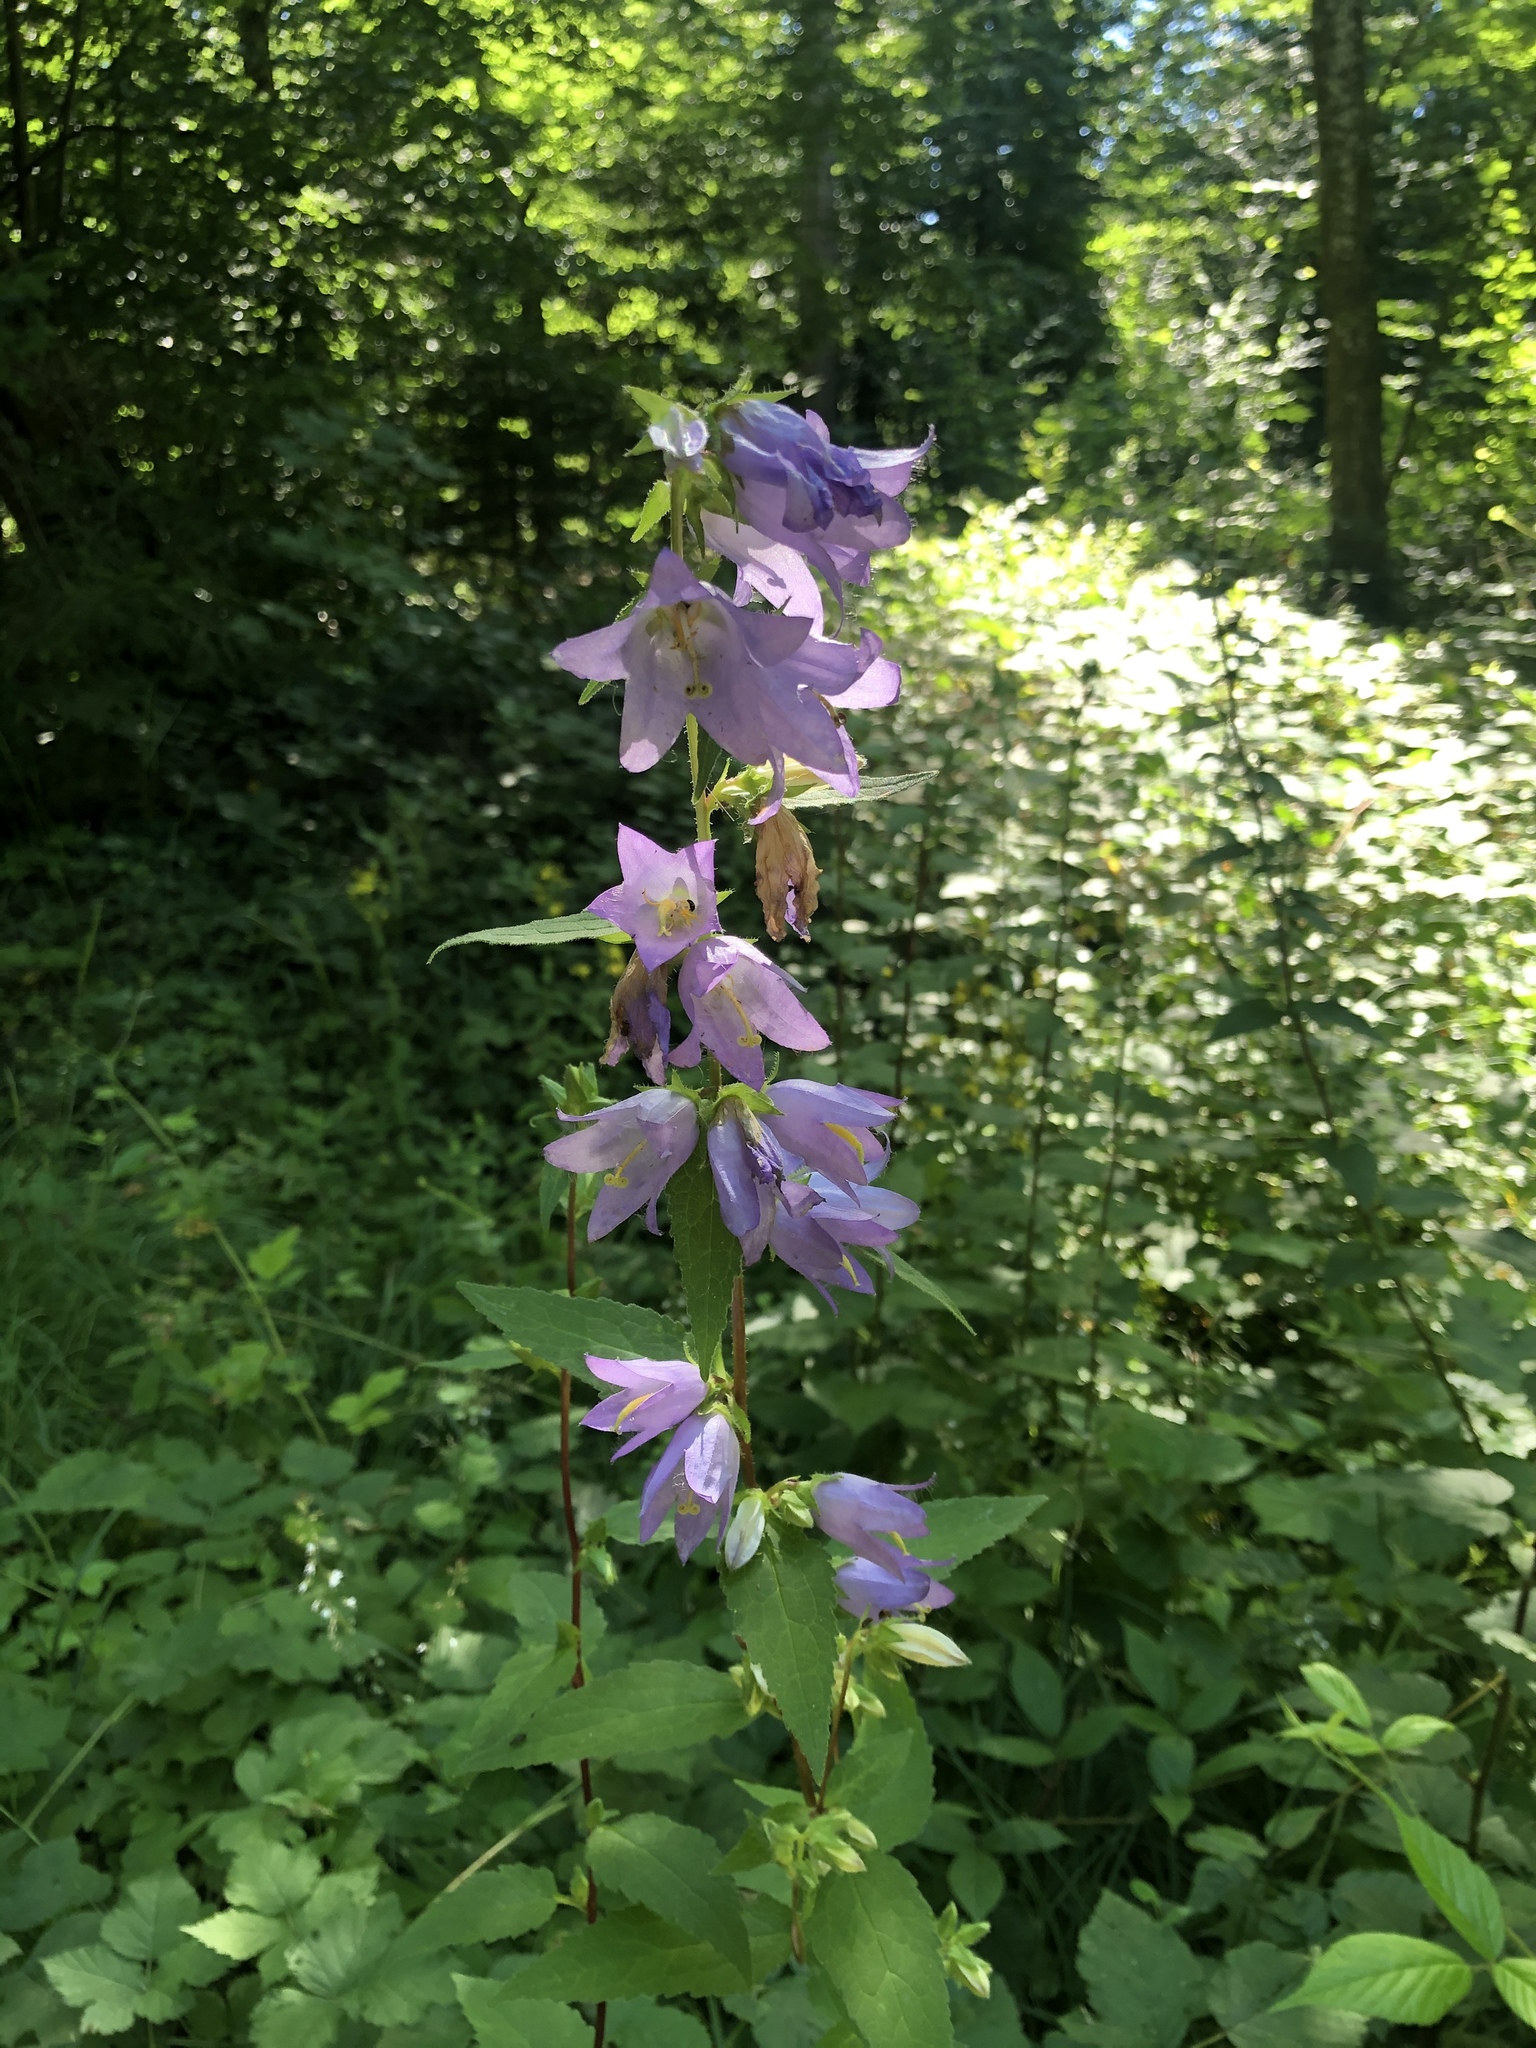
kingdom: Plantae
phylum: Tracheophyta
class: Magnoliopsida
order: Asterales
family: Campanulaceae
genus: Campanula
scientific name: Campanula trachelium
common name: Nettle-leaved bellflower
